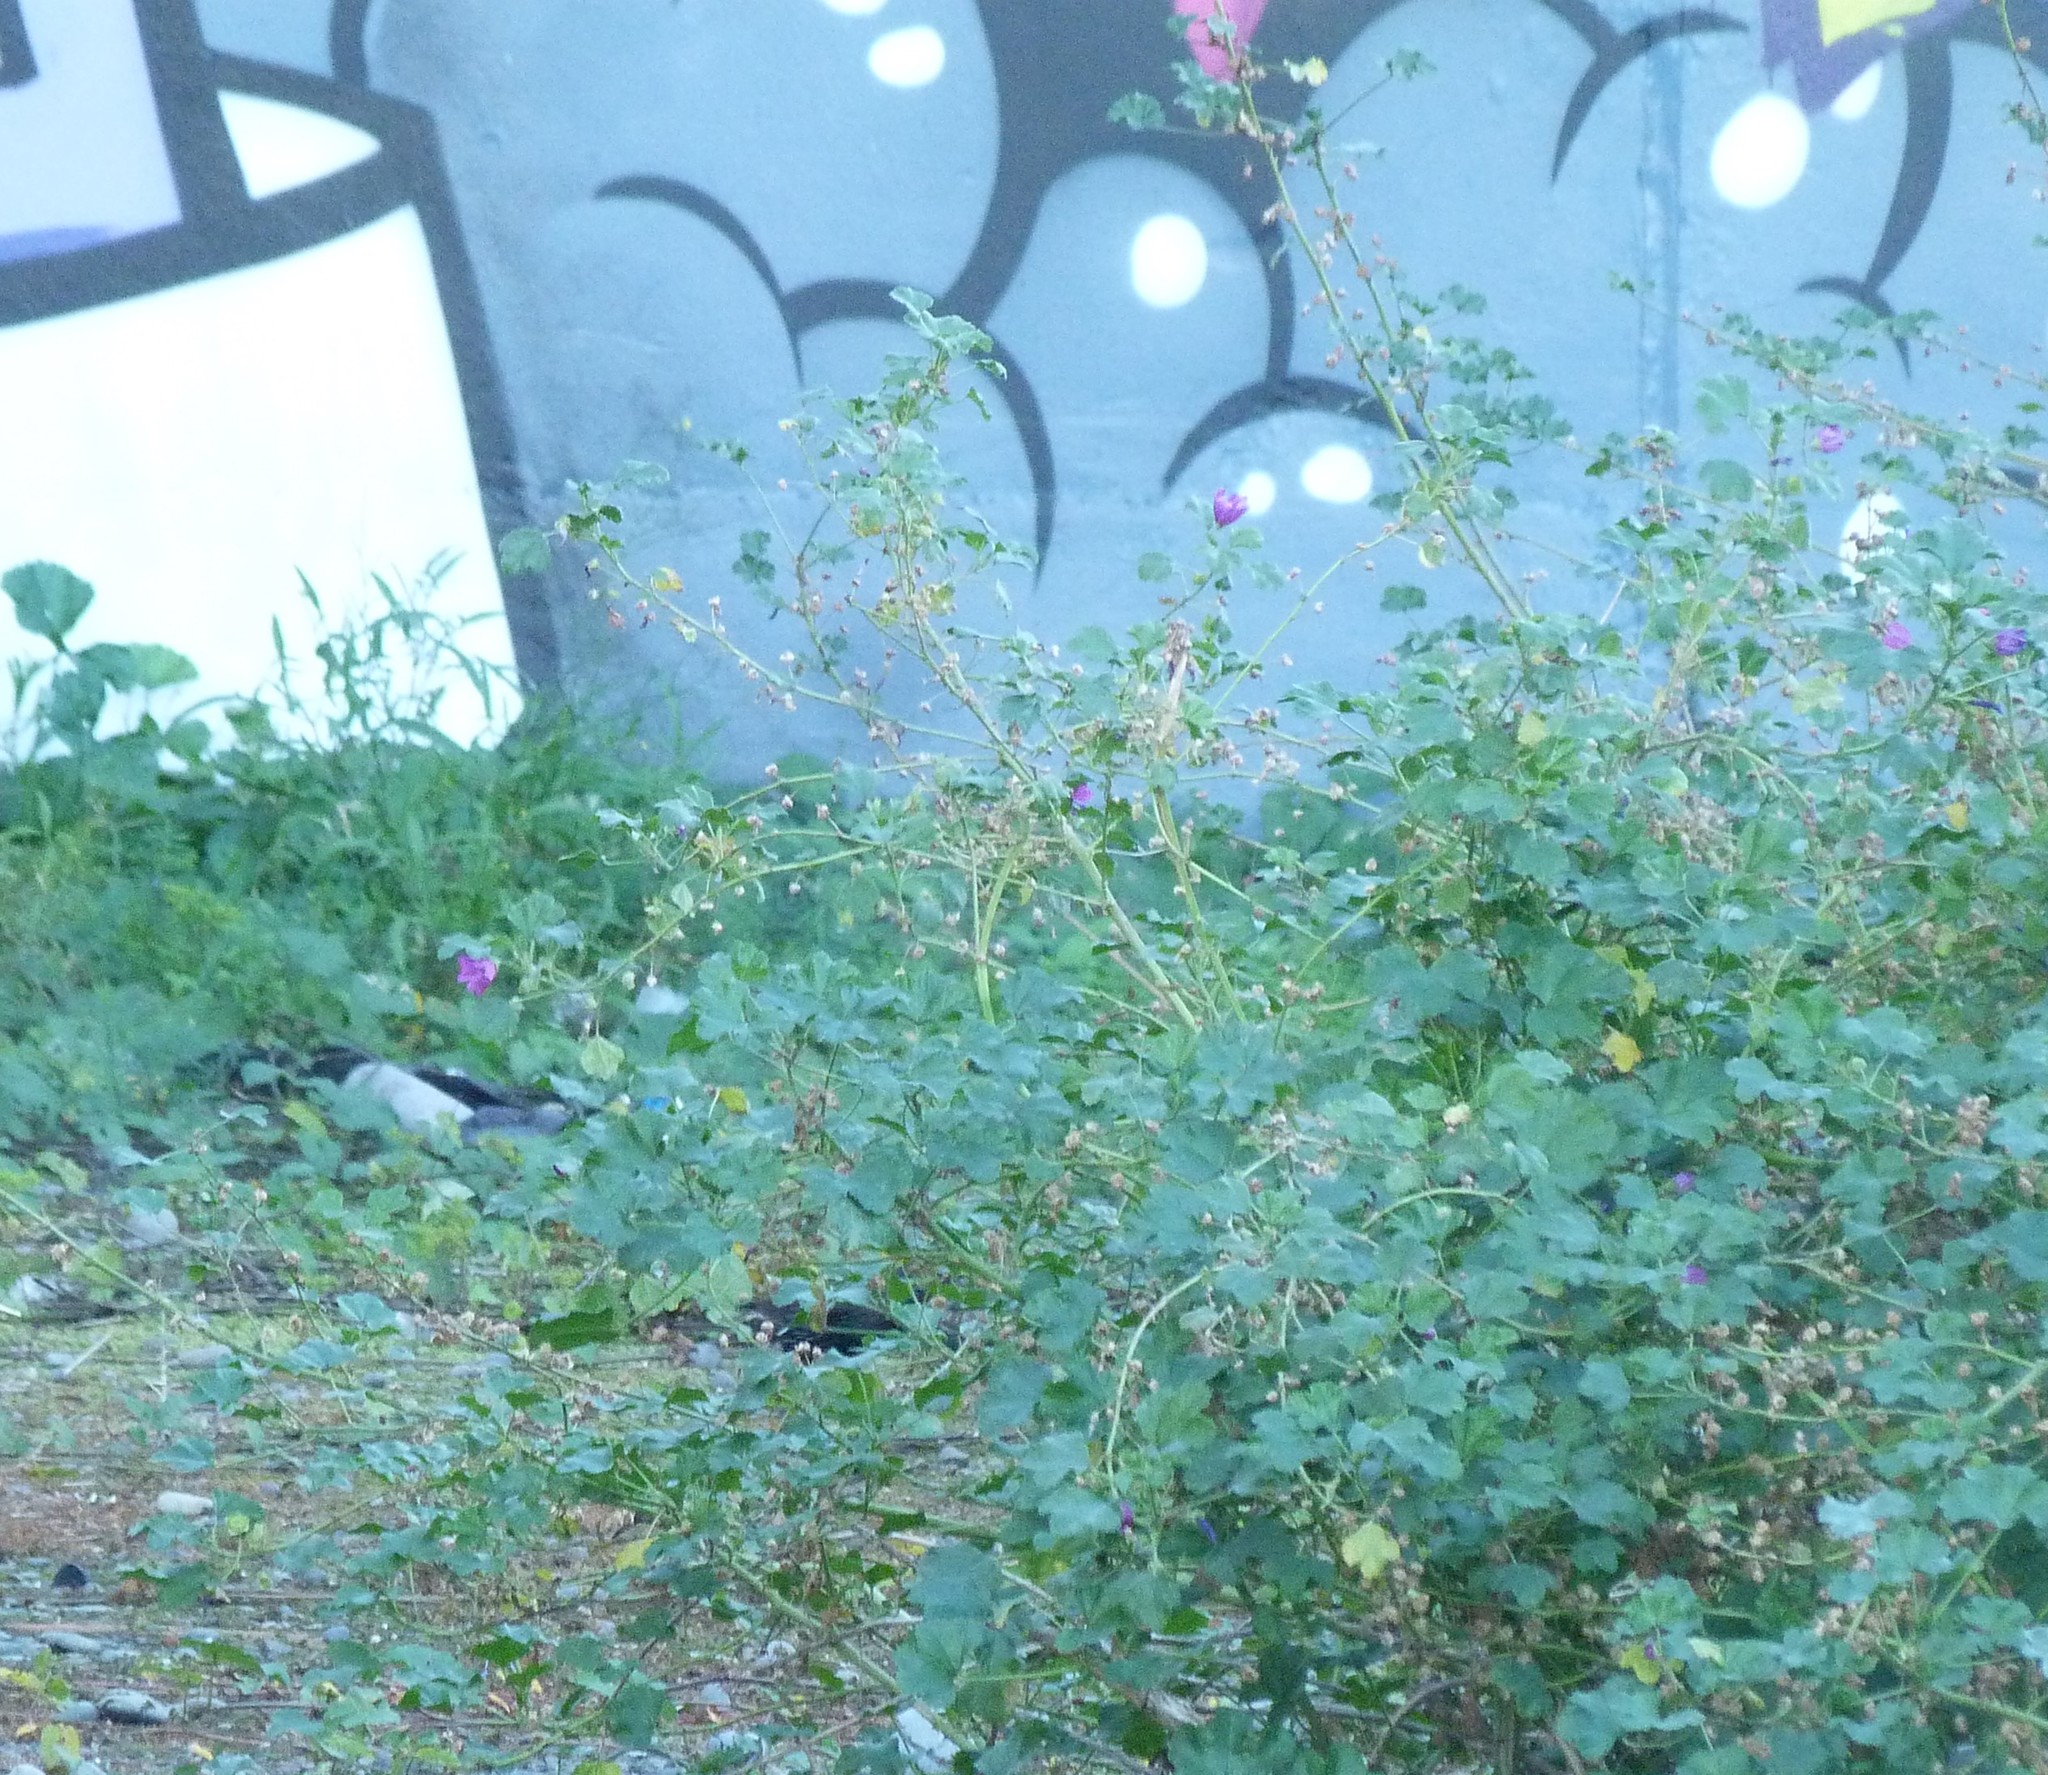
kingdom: Plantae
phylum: Tracheophyta
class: Magnoliopsida
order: Malvales
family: Malvaceae
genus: Malva
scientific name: Malva sylvestris
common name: Common mallow
